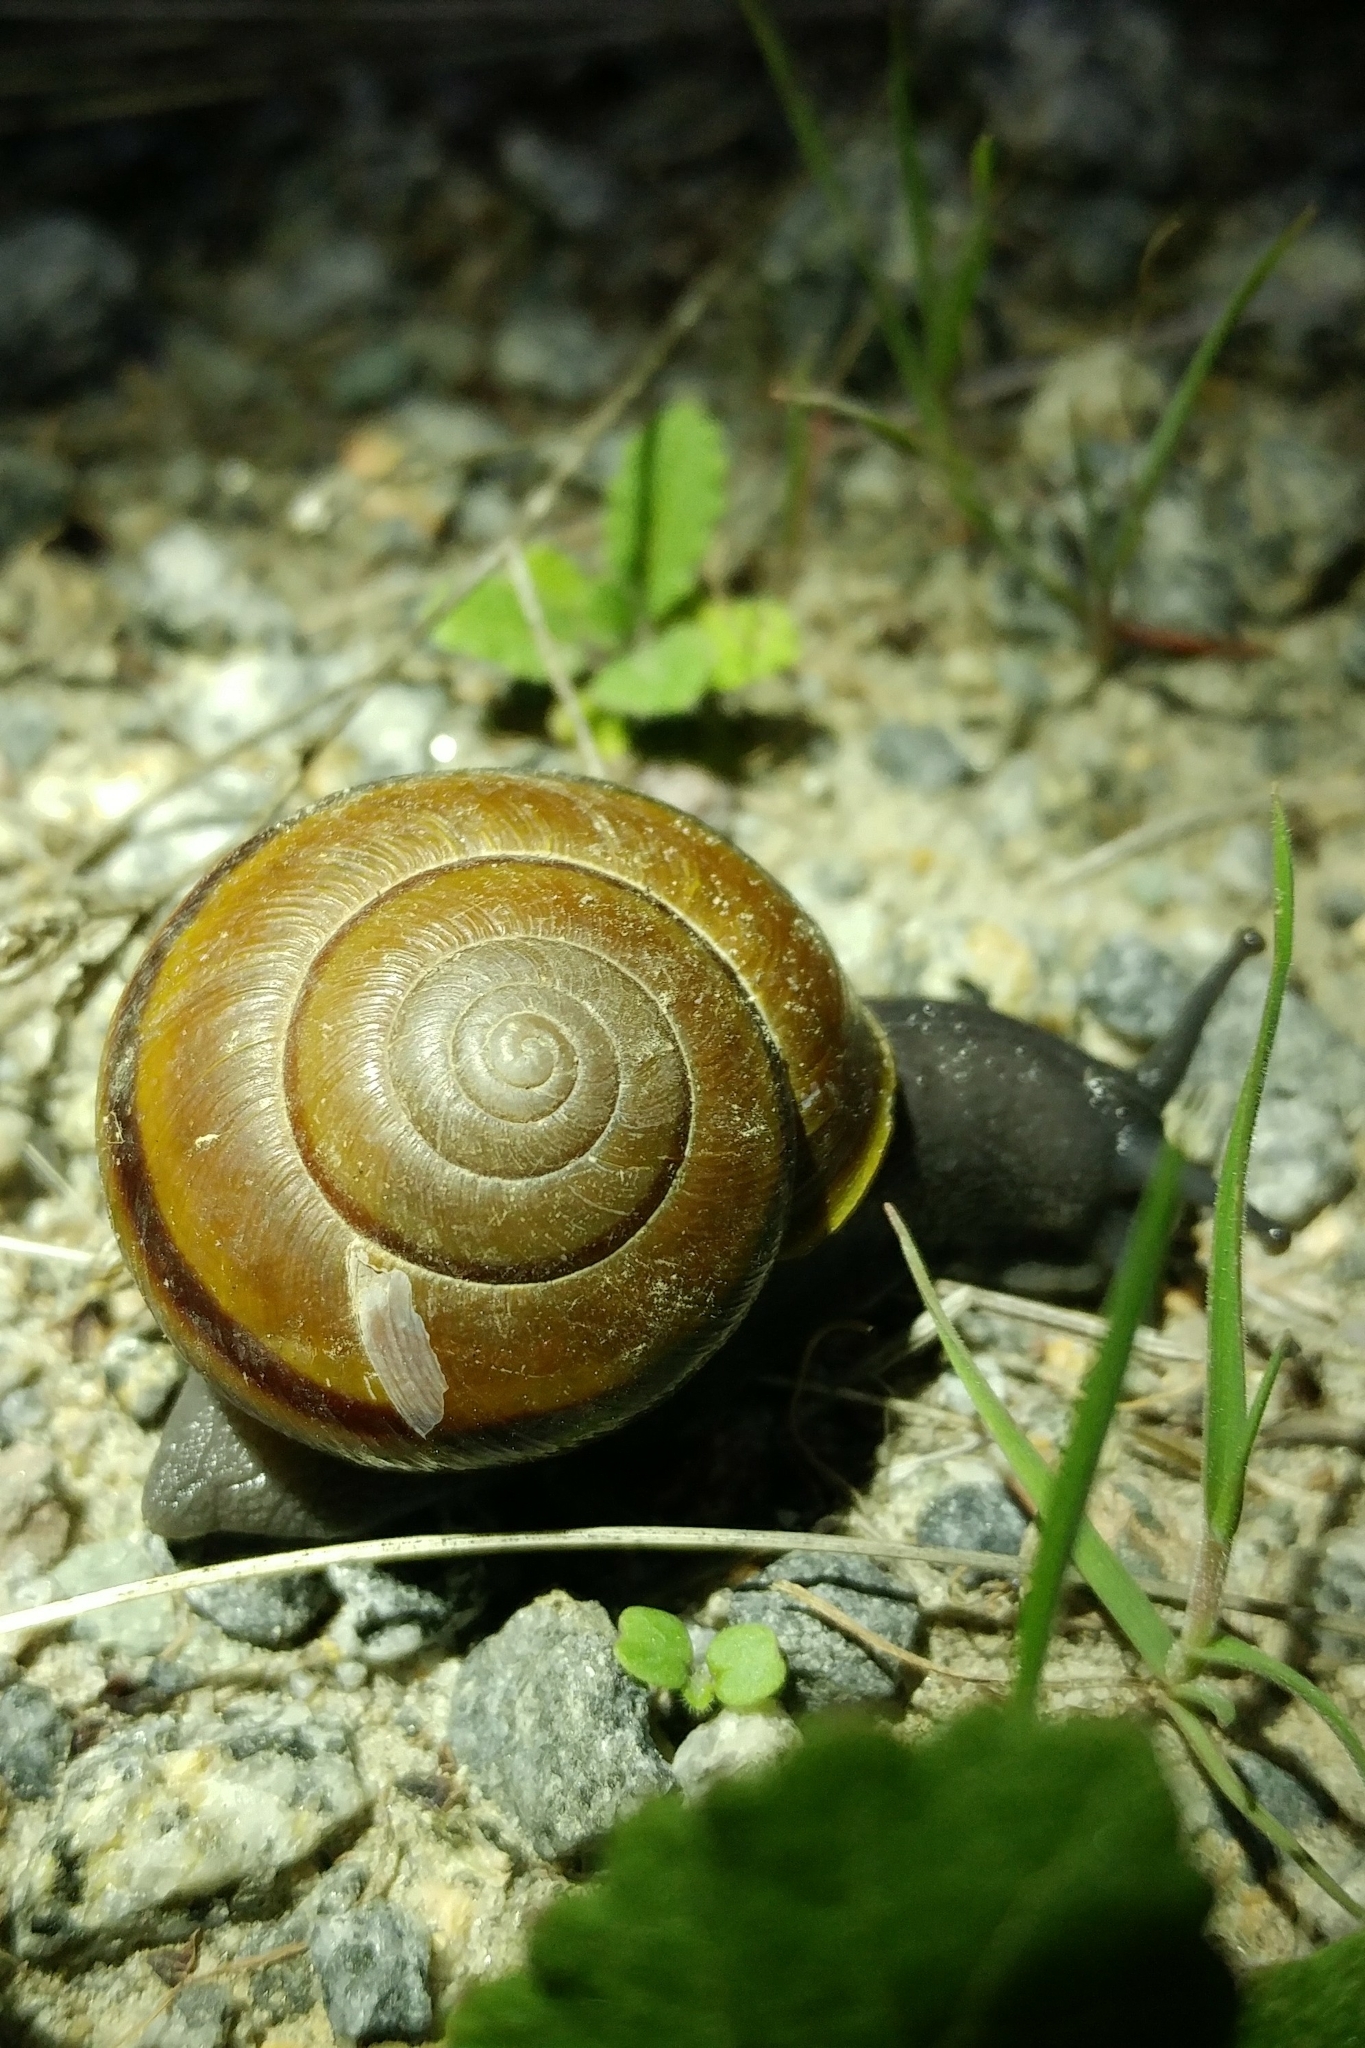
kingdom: Animalia
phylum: Mollusca
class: Gastropoda
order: Stylommatophora
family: Xanthonychidae
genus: Helminthoglypta
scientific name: Helminthoglypta tudiculata
